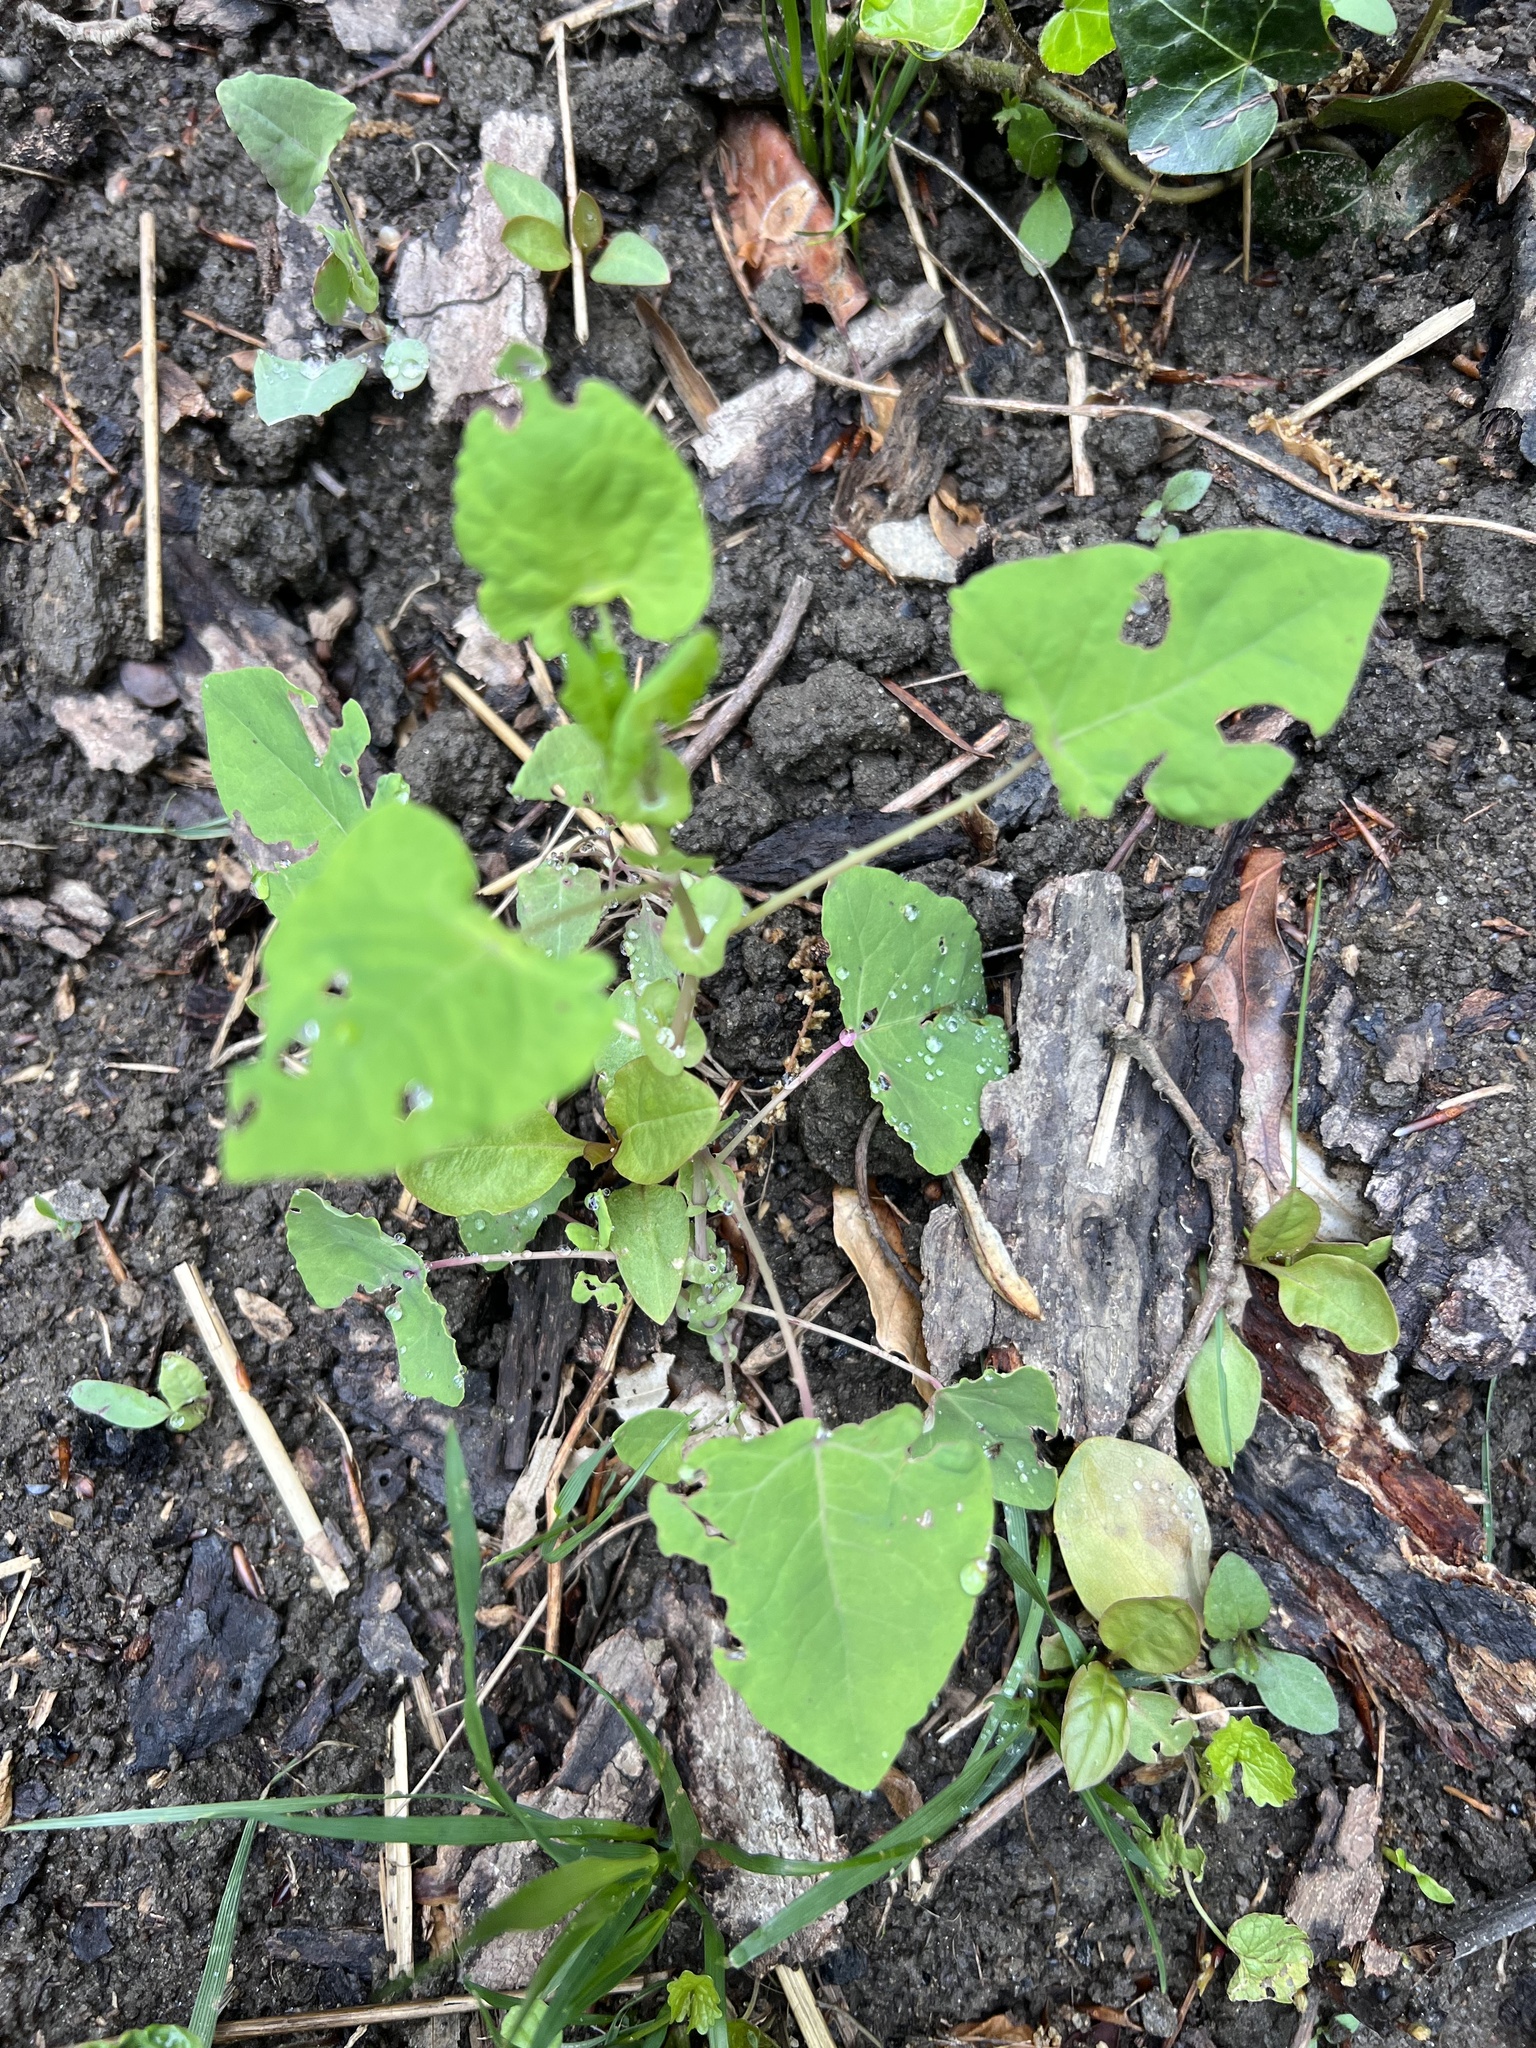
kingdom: Plantae
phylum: Tracheophyta
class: Magnoliopsida
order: Caryophyllales
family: Polygonaceae
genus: Persicaria
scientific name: Persicaria perfoliata
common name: Asiatic tearthumb
